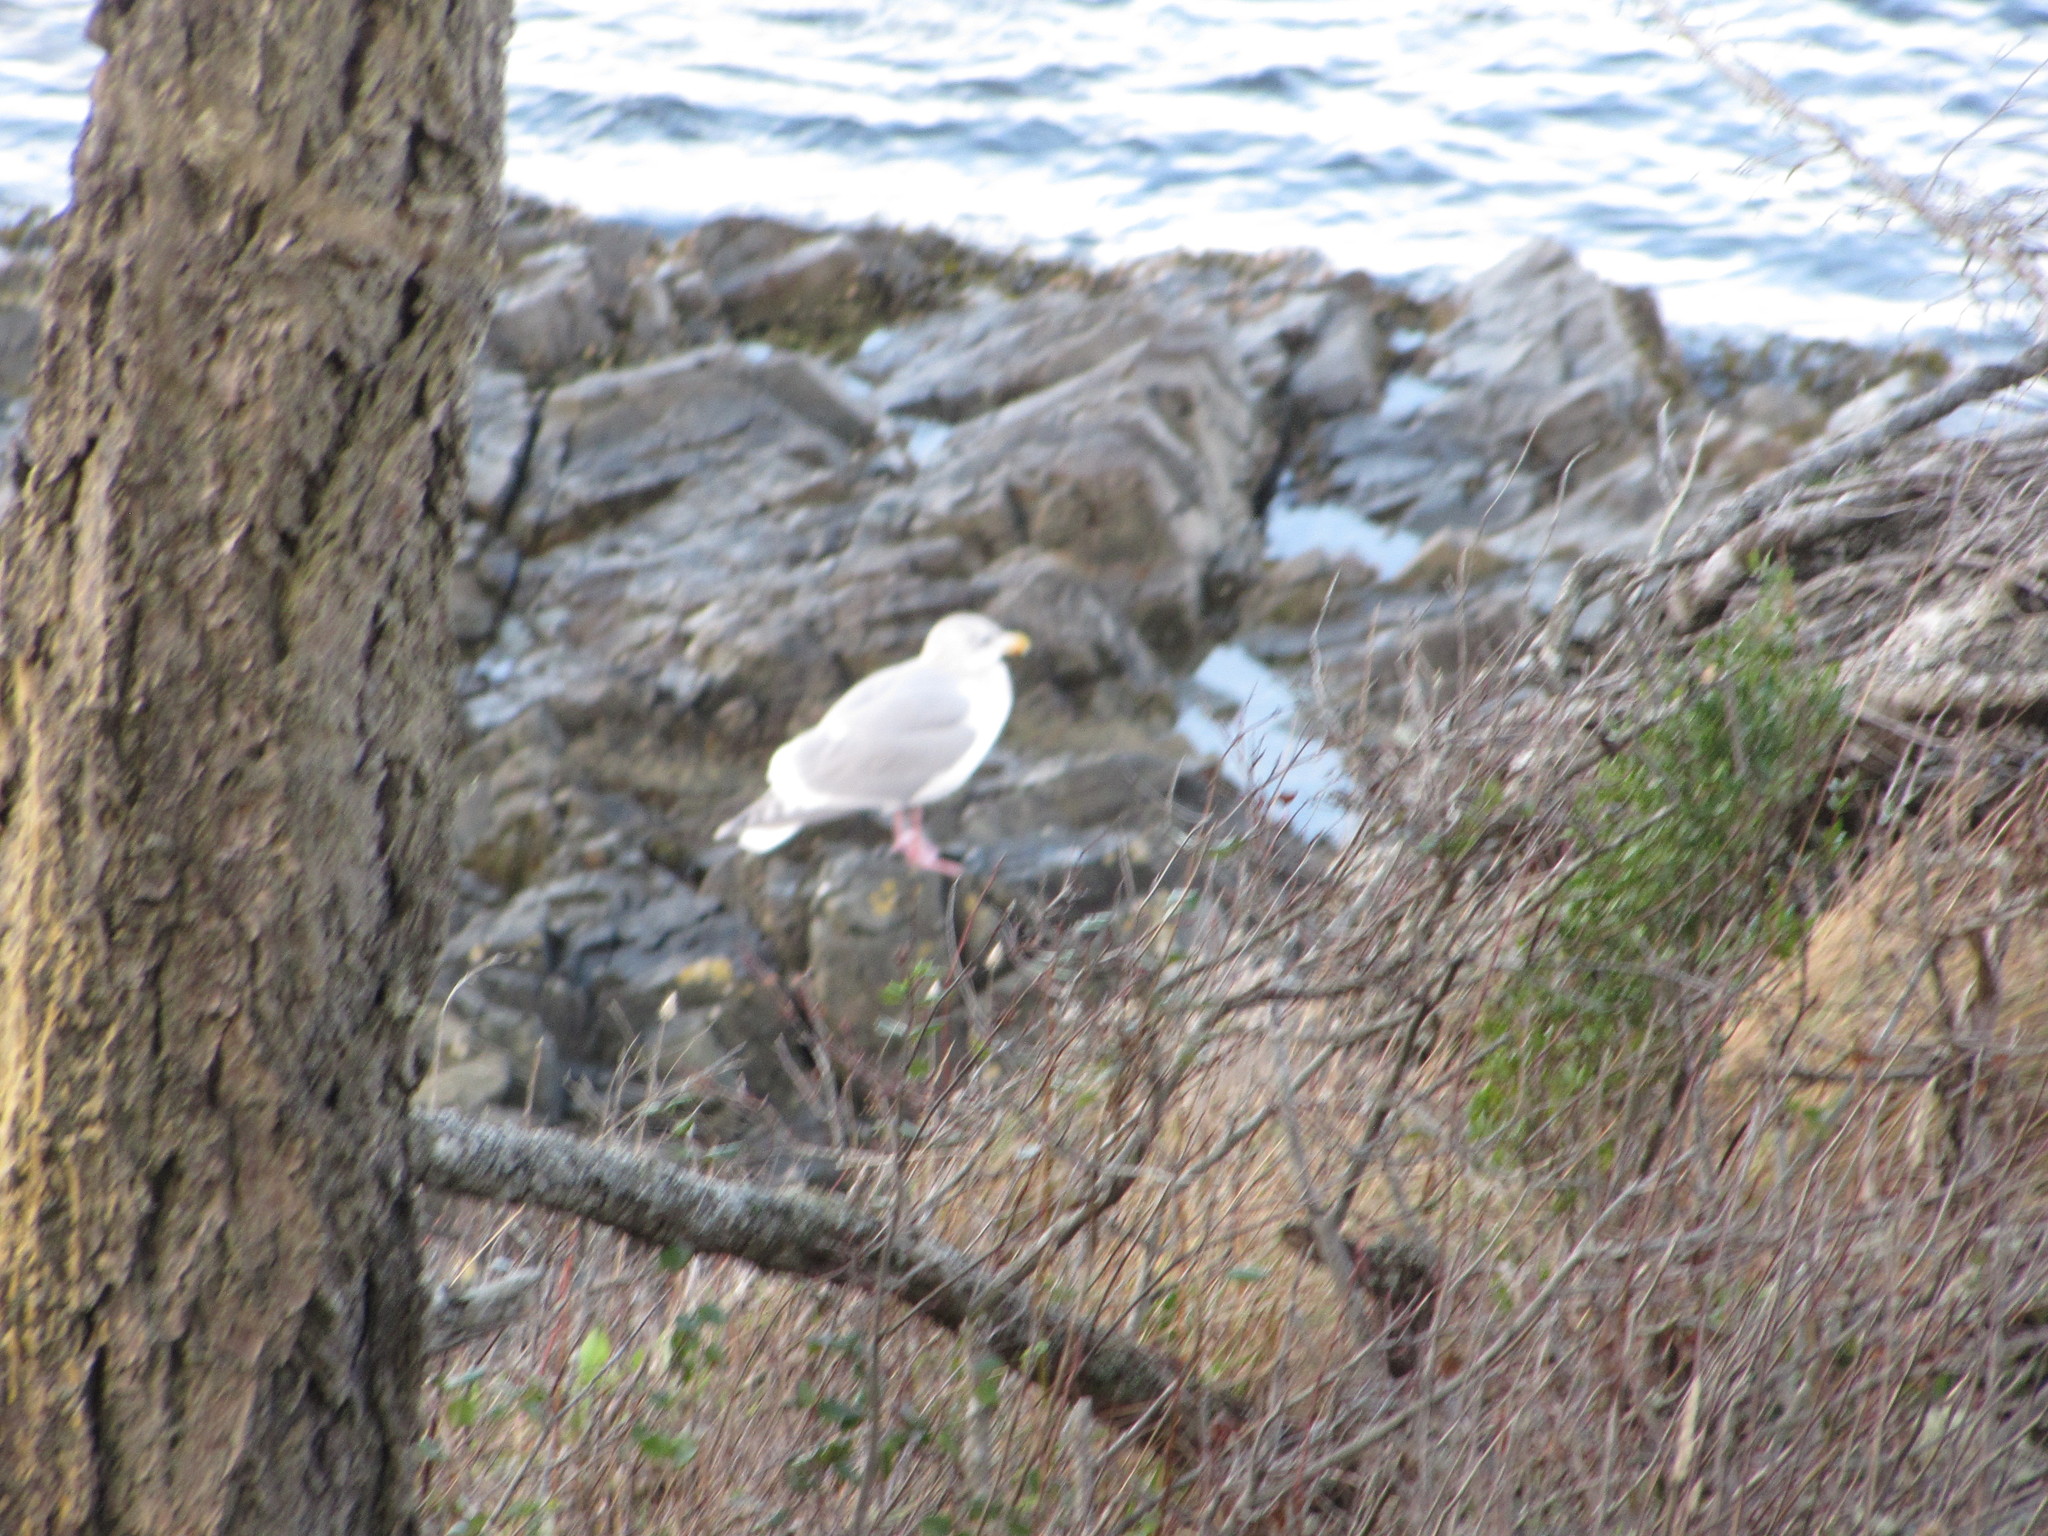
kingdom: Animalia
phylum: Chordata
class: Aves
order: Charadriiformes
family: Laridae
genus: Larus
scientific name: Larus glaucescens
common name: Glaucous-winged gull
